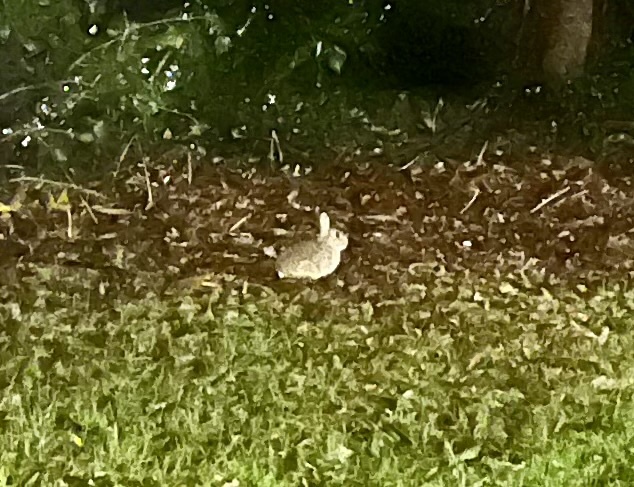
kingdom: Animalia
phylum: Chordata
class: Mammalia
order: Lagomorpha
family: Leporidae
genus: Oryctolagus
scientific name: Oryctolagus cuniculus
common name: European rabbit
